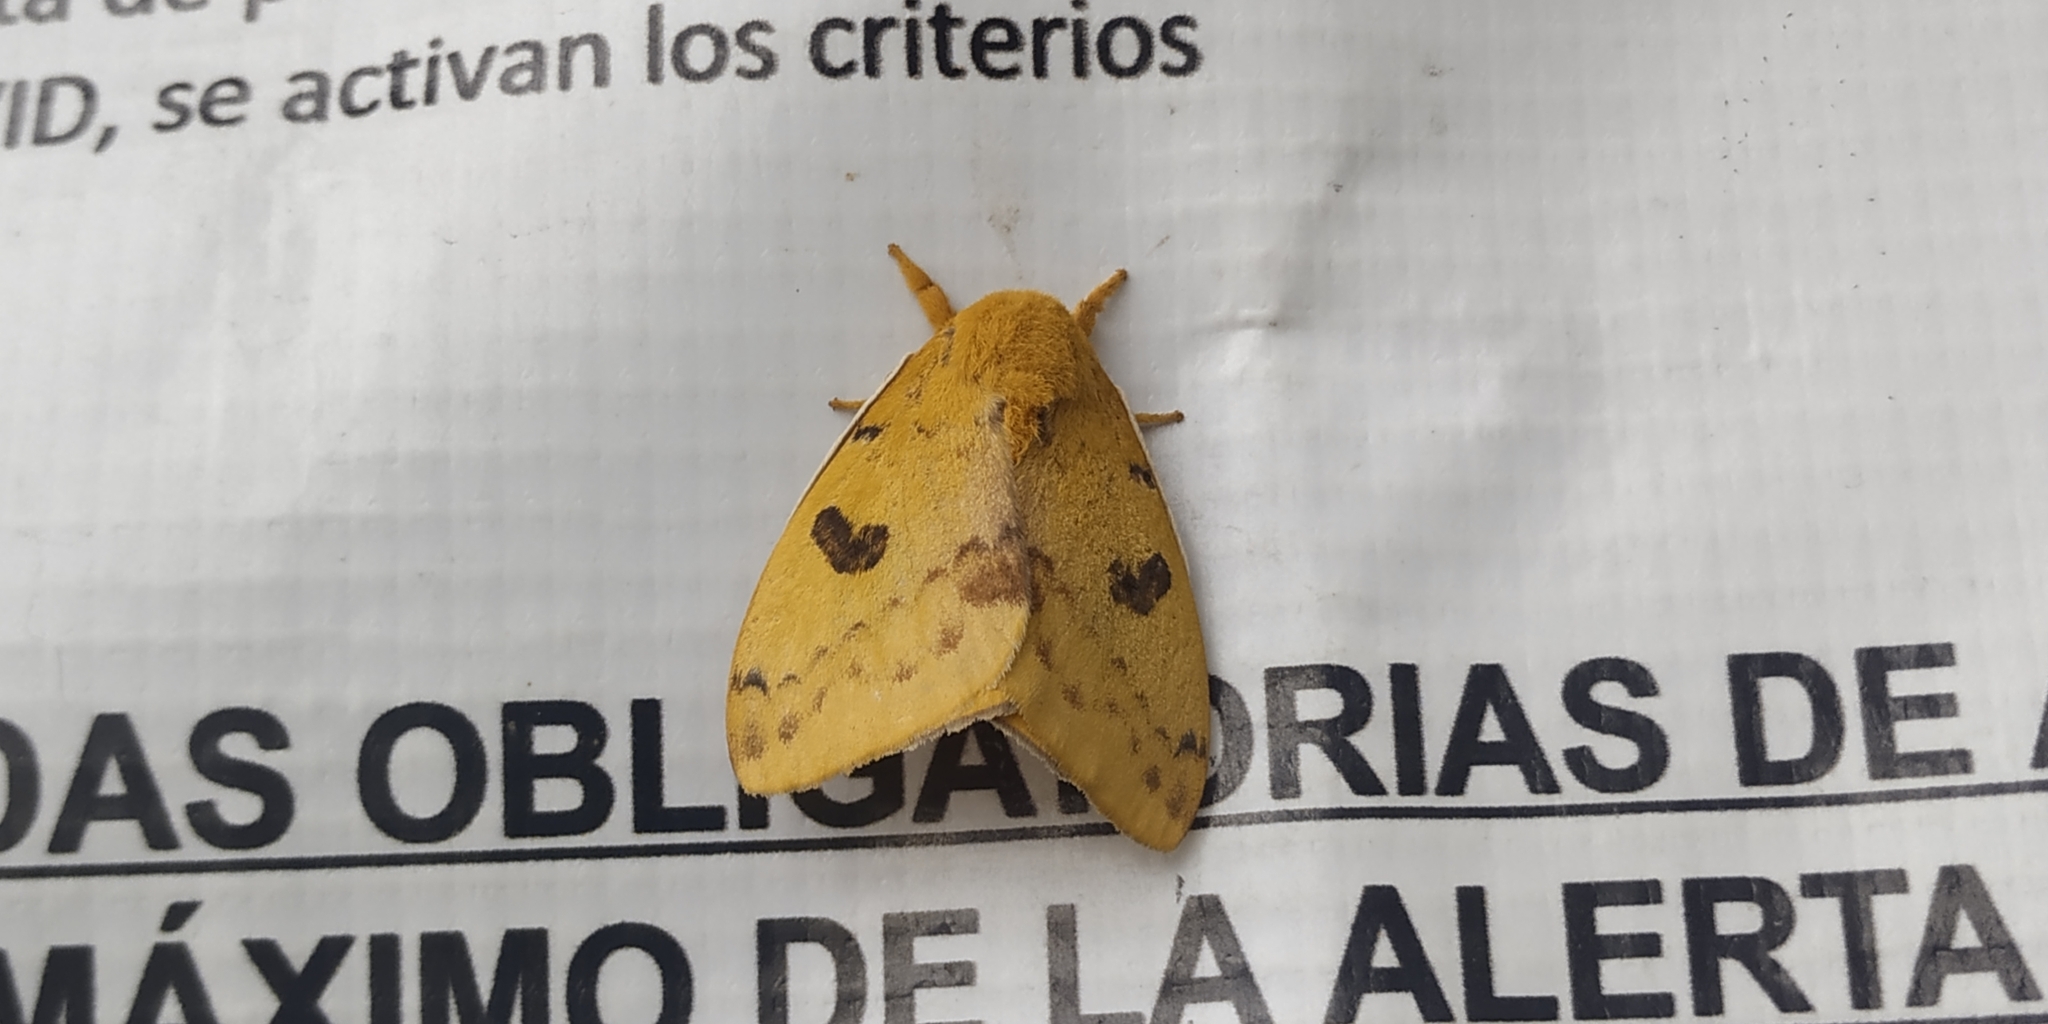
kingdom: Animalia
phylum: Arthropoda
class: Insecta
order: Lepidoptera
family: Saturniidae
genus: Automeris
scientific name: Automeris io
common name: Io moth
